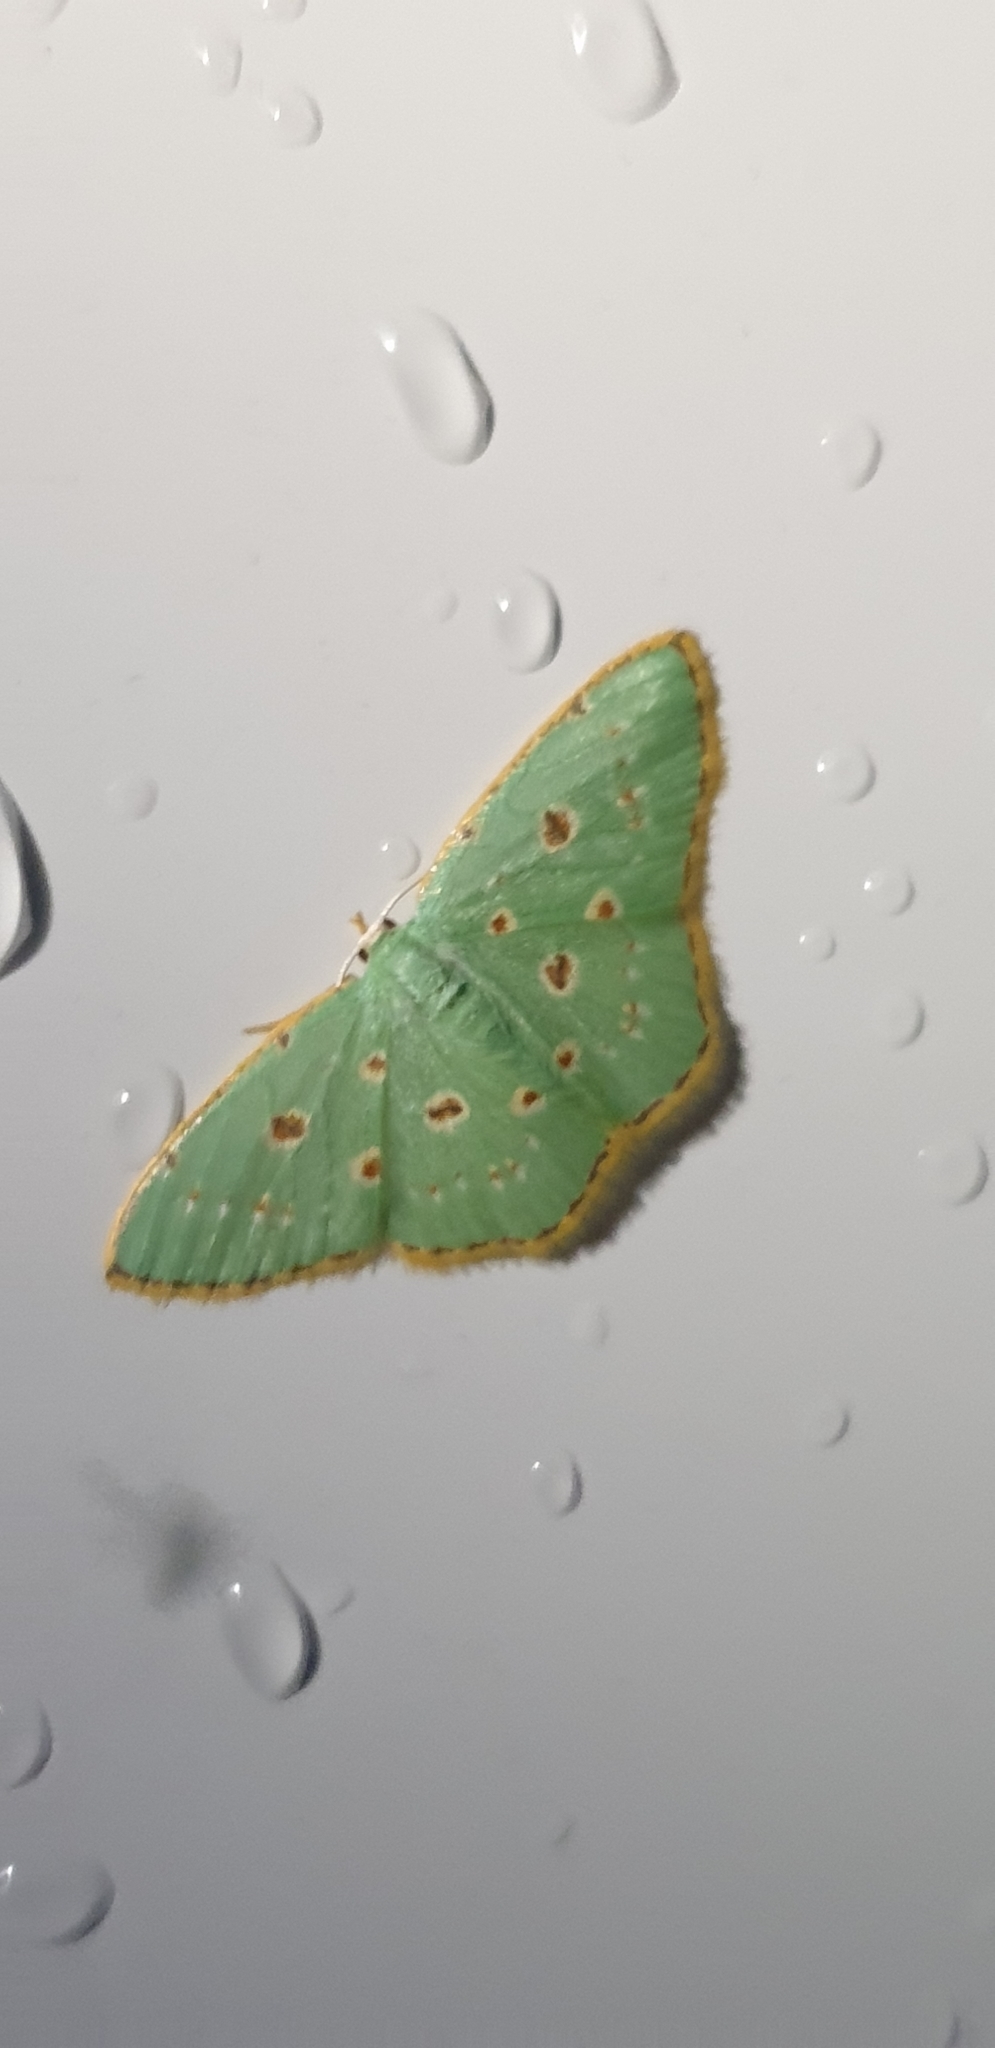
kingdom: Animalia
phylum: Arthropoda
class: Insecta
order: Lepidoptera
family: Geometridae
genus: Comostola
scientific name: Comostola laesaria
